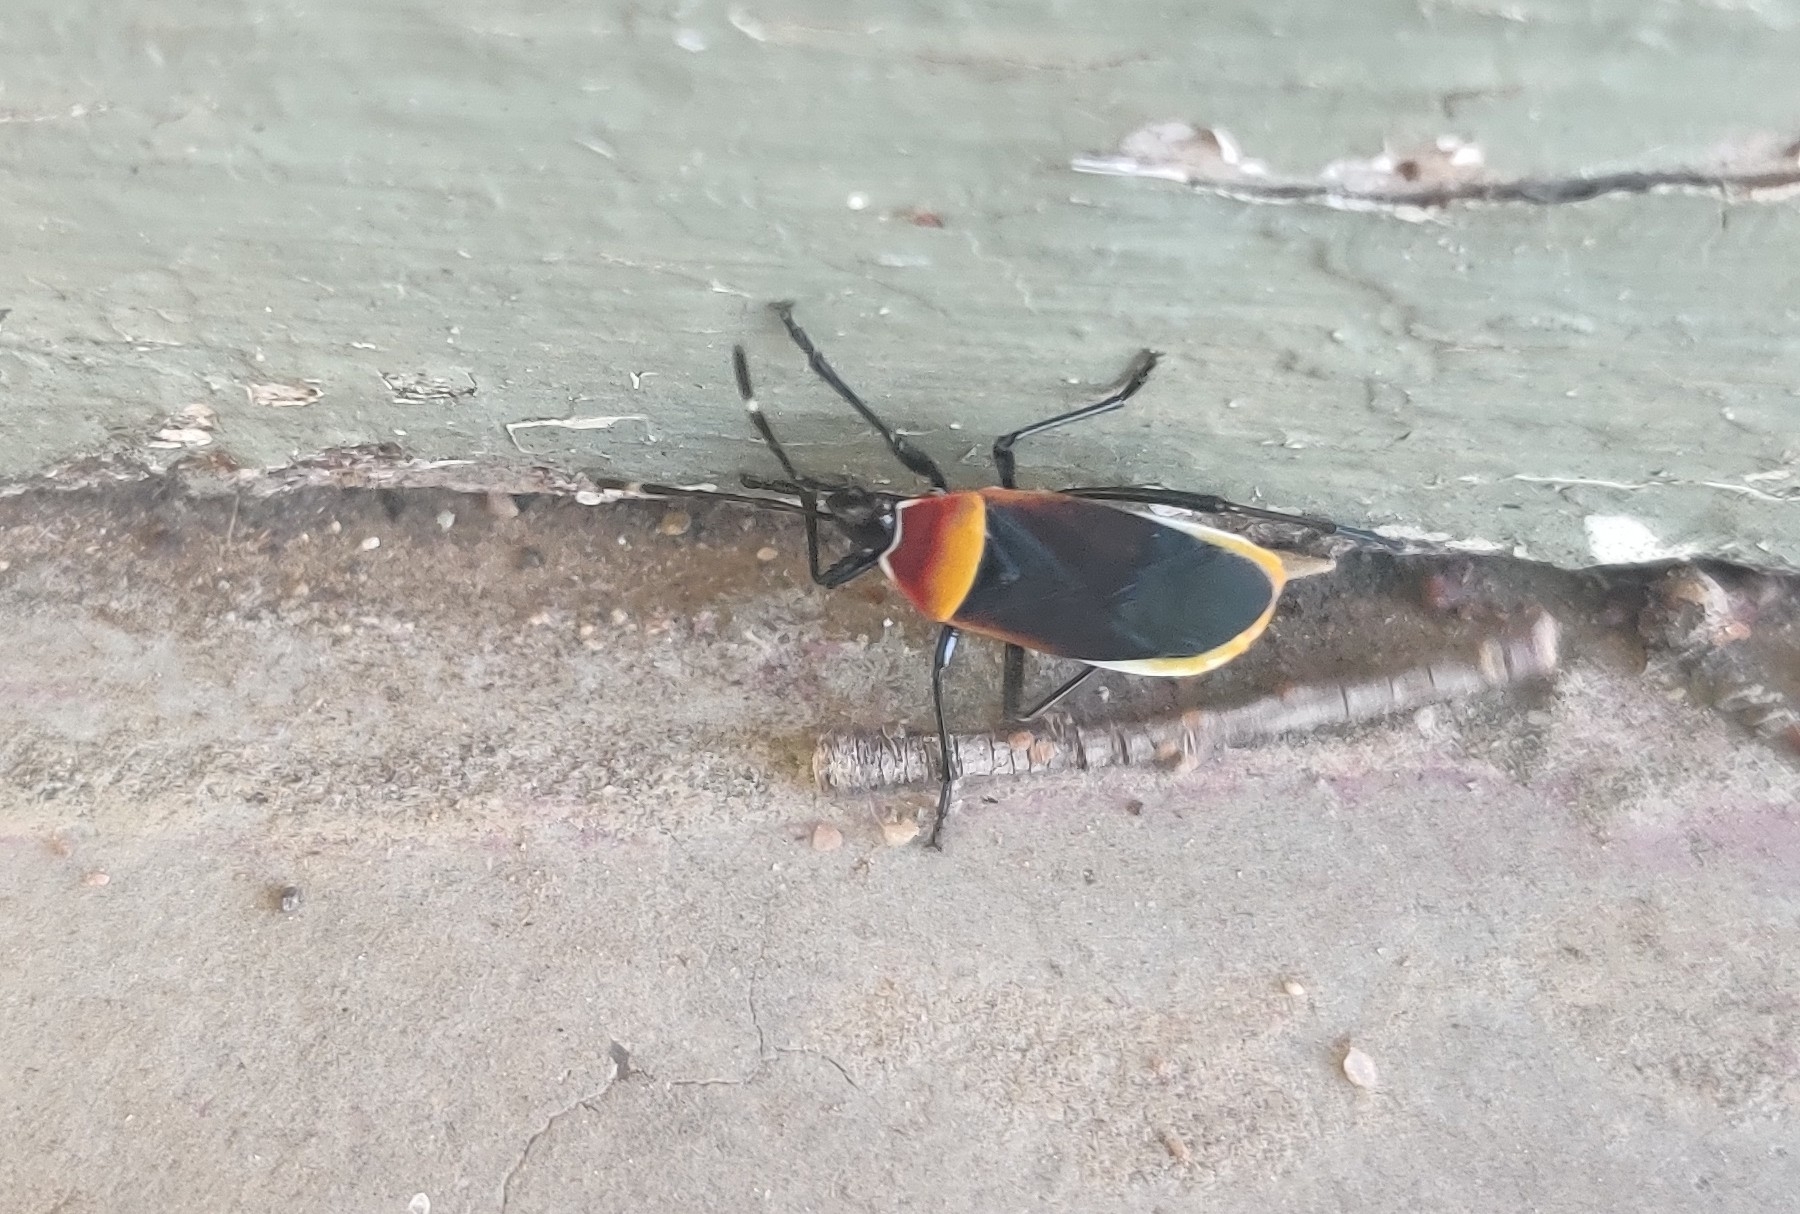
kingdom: Animalia
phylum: Arthropoda
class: Insecta
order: Hemiptera
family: Pyrrhocoridae
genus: Dindymus
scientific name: Dindymus
